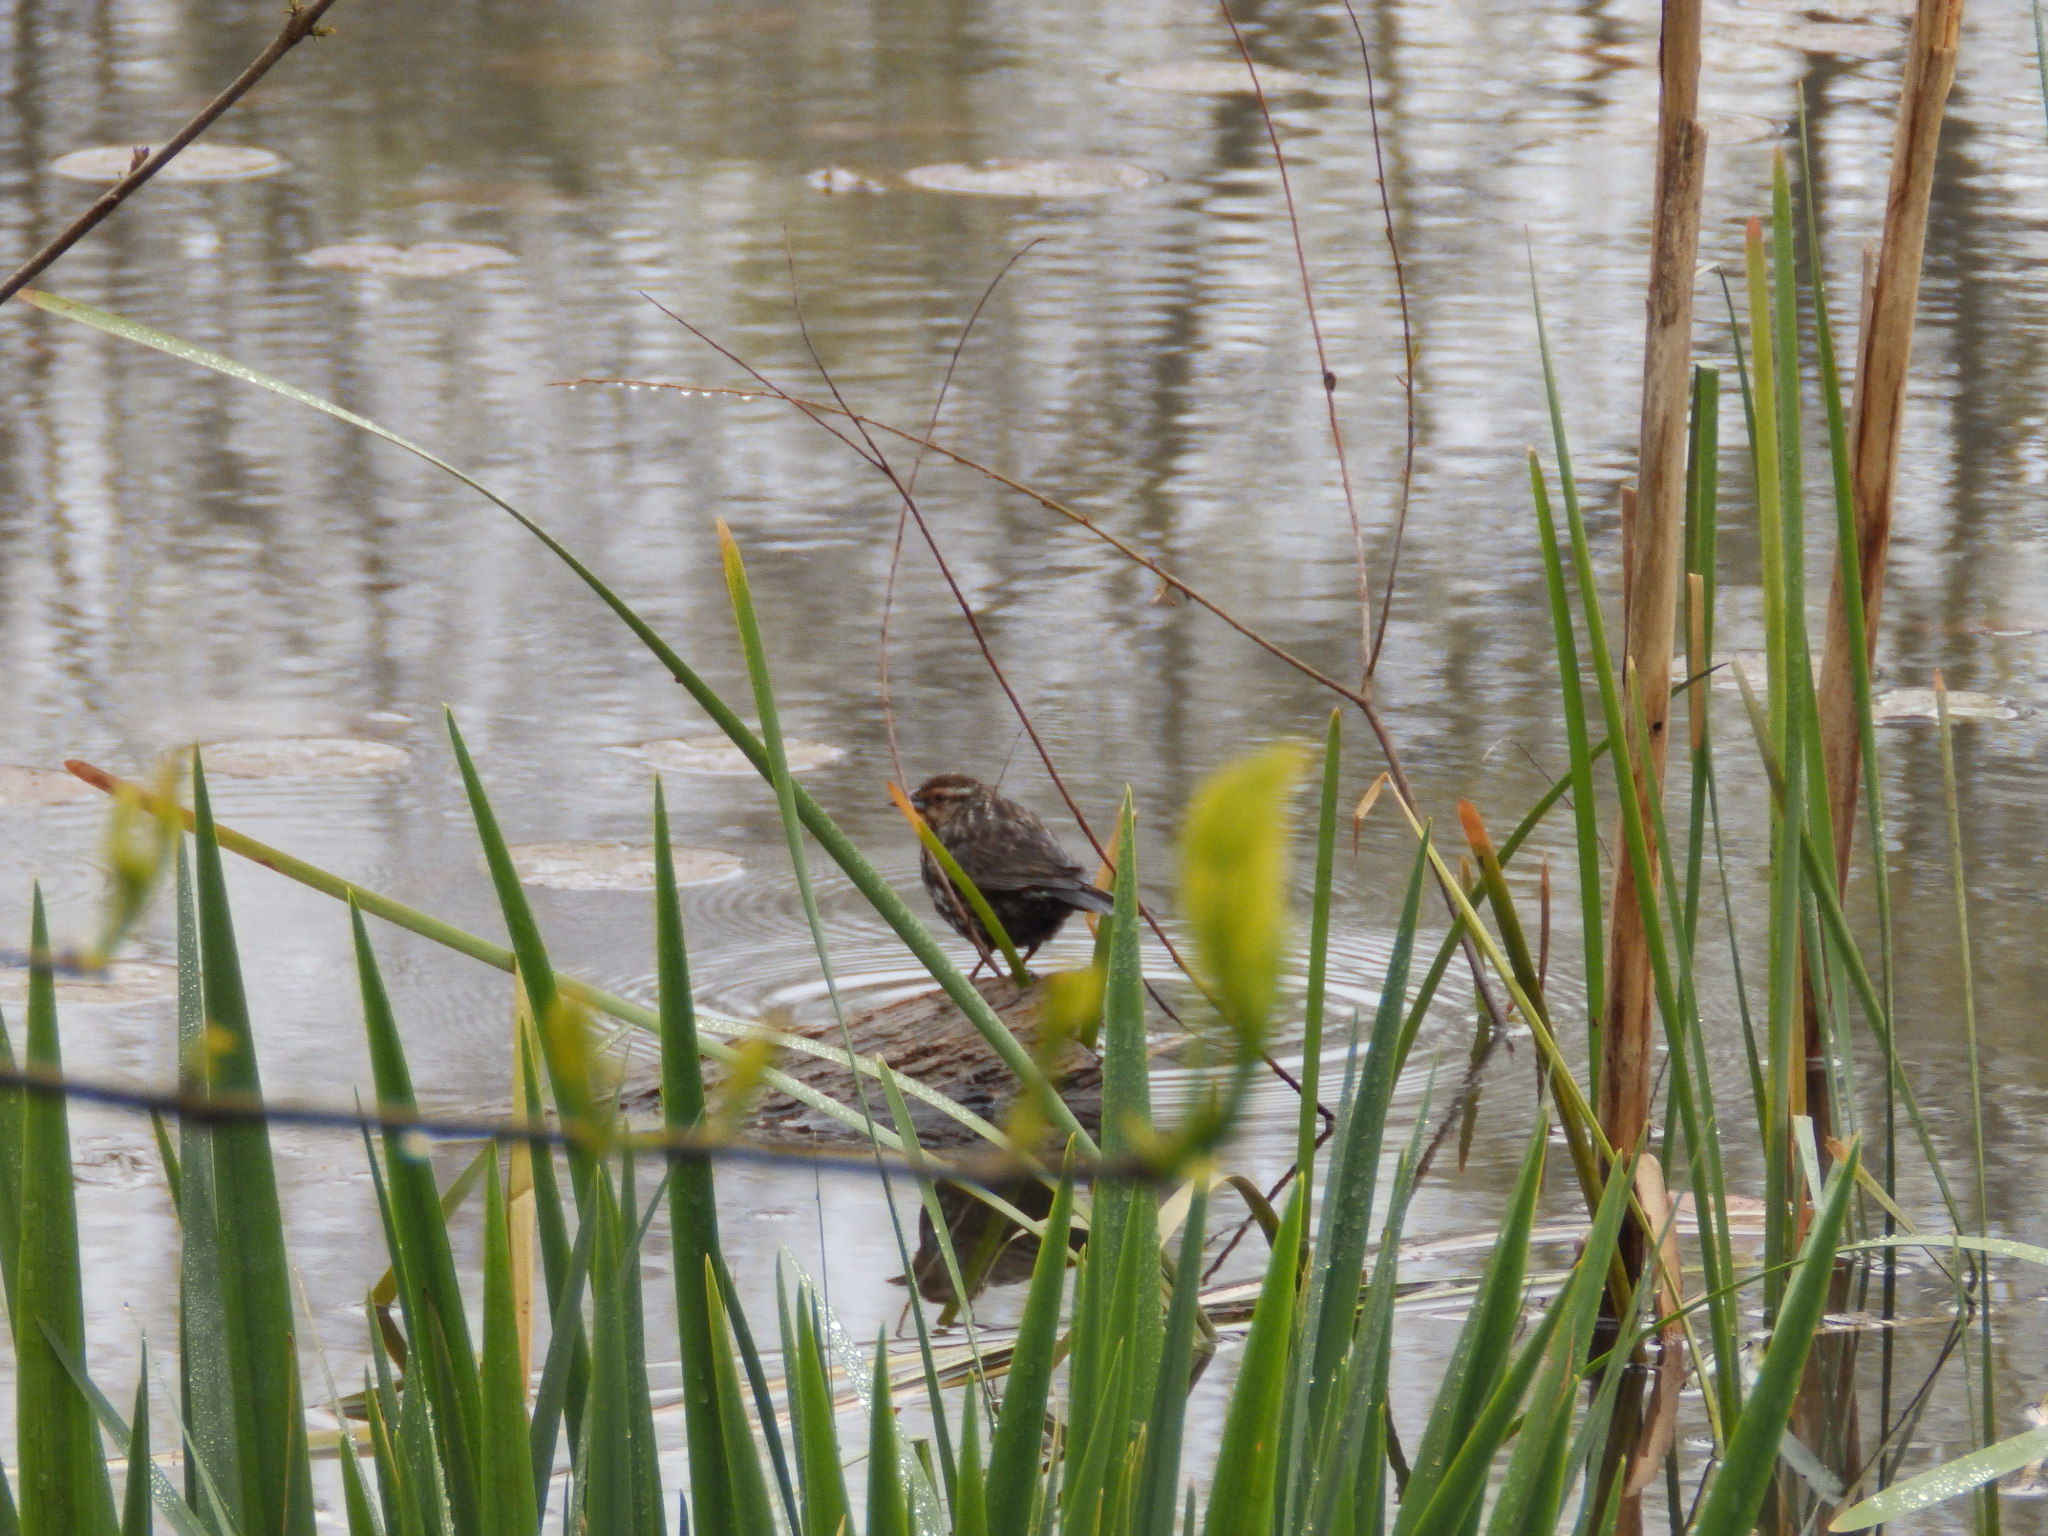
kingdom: Animalia
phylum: Chordata
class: Aves
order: Passeriformes
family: Icteridae
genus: Agelaius
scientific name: Agelaius phoeniceus
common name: Red-winged blackbird
